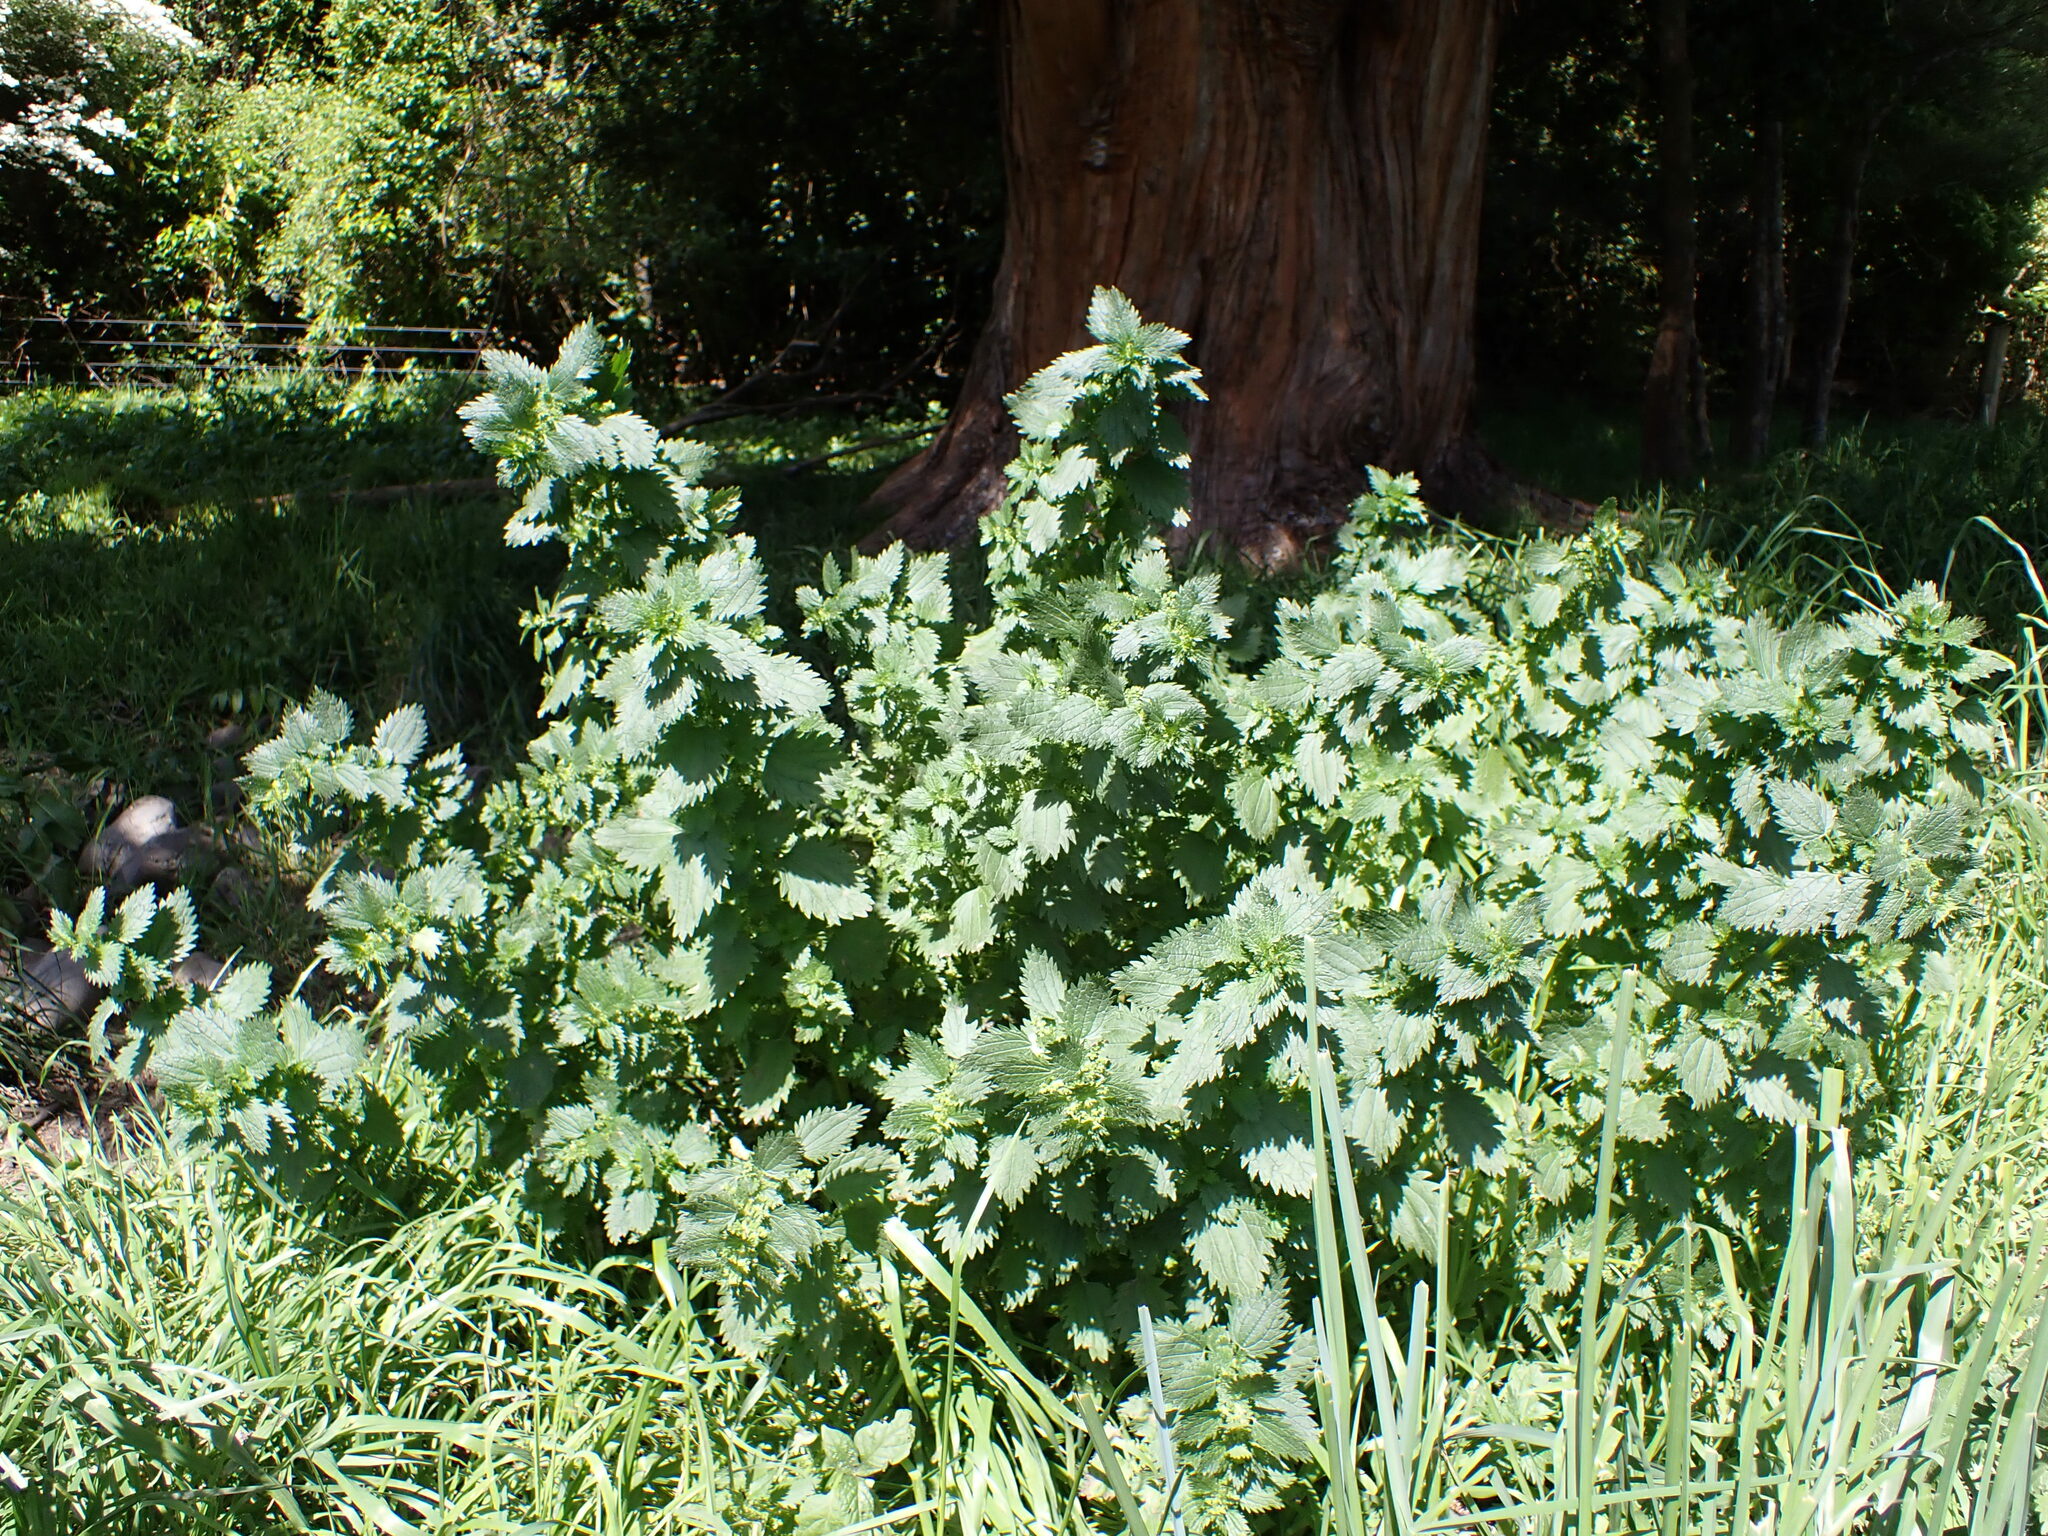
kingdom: Plantae
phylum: Tracheophyta
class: Magnoliopsida
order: Rosales
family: Urticaceae
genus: Urtica
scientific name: Urtica urens
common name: Dwarf nettle
